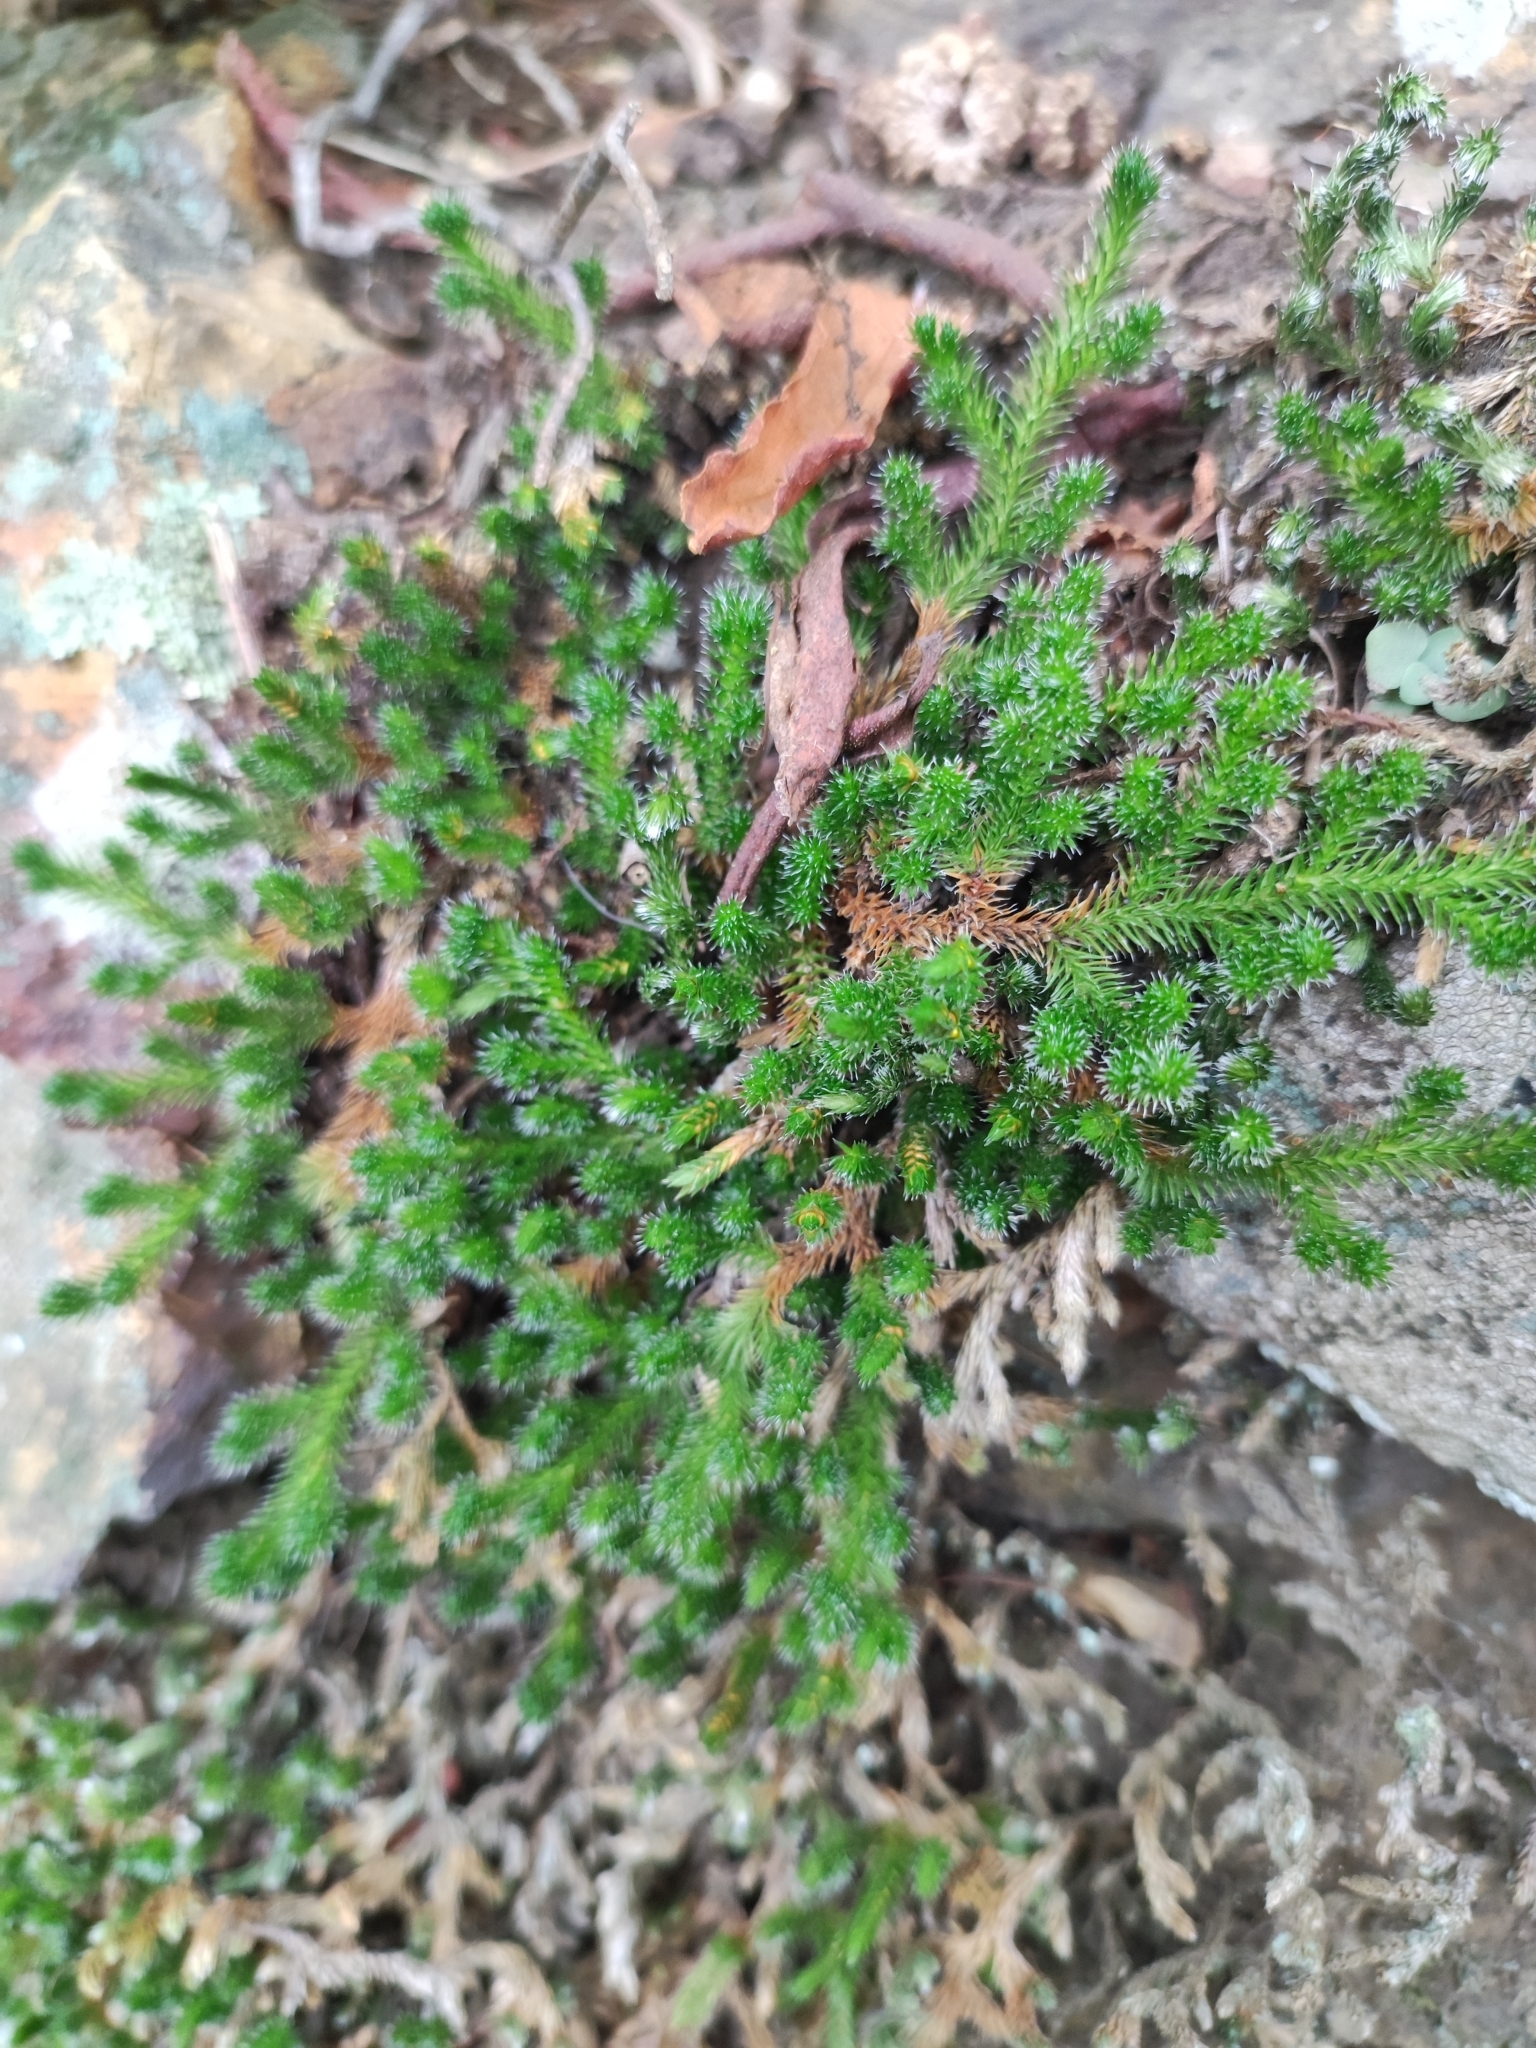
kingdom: Plantae
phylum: Tracheophyta
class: Lycopodiopsida
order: Selaginellales
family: Selaginellaceae
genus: Selaginella
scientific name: Selaginella sibirica
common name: Siberian spikemoss
